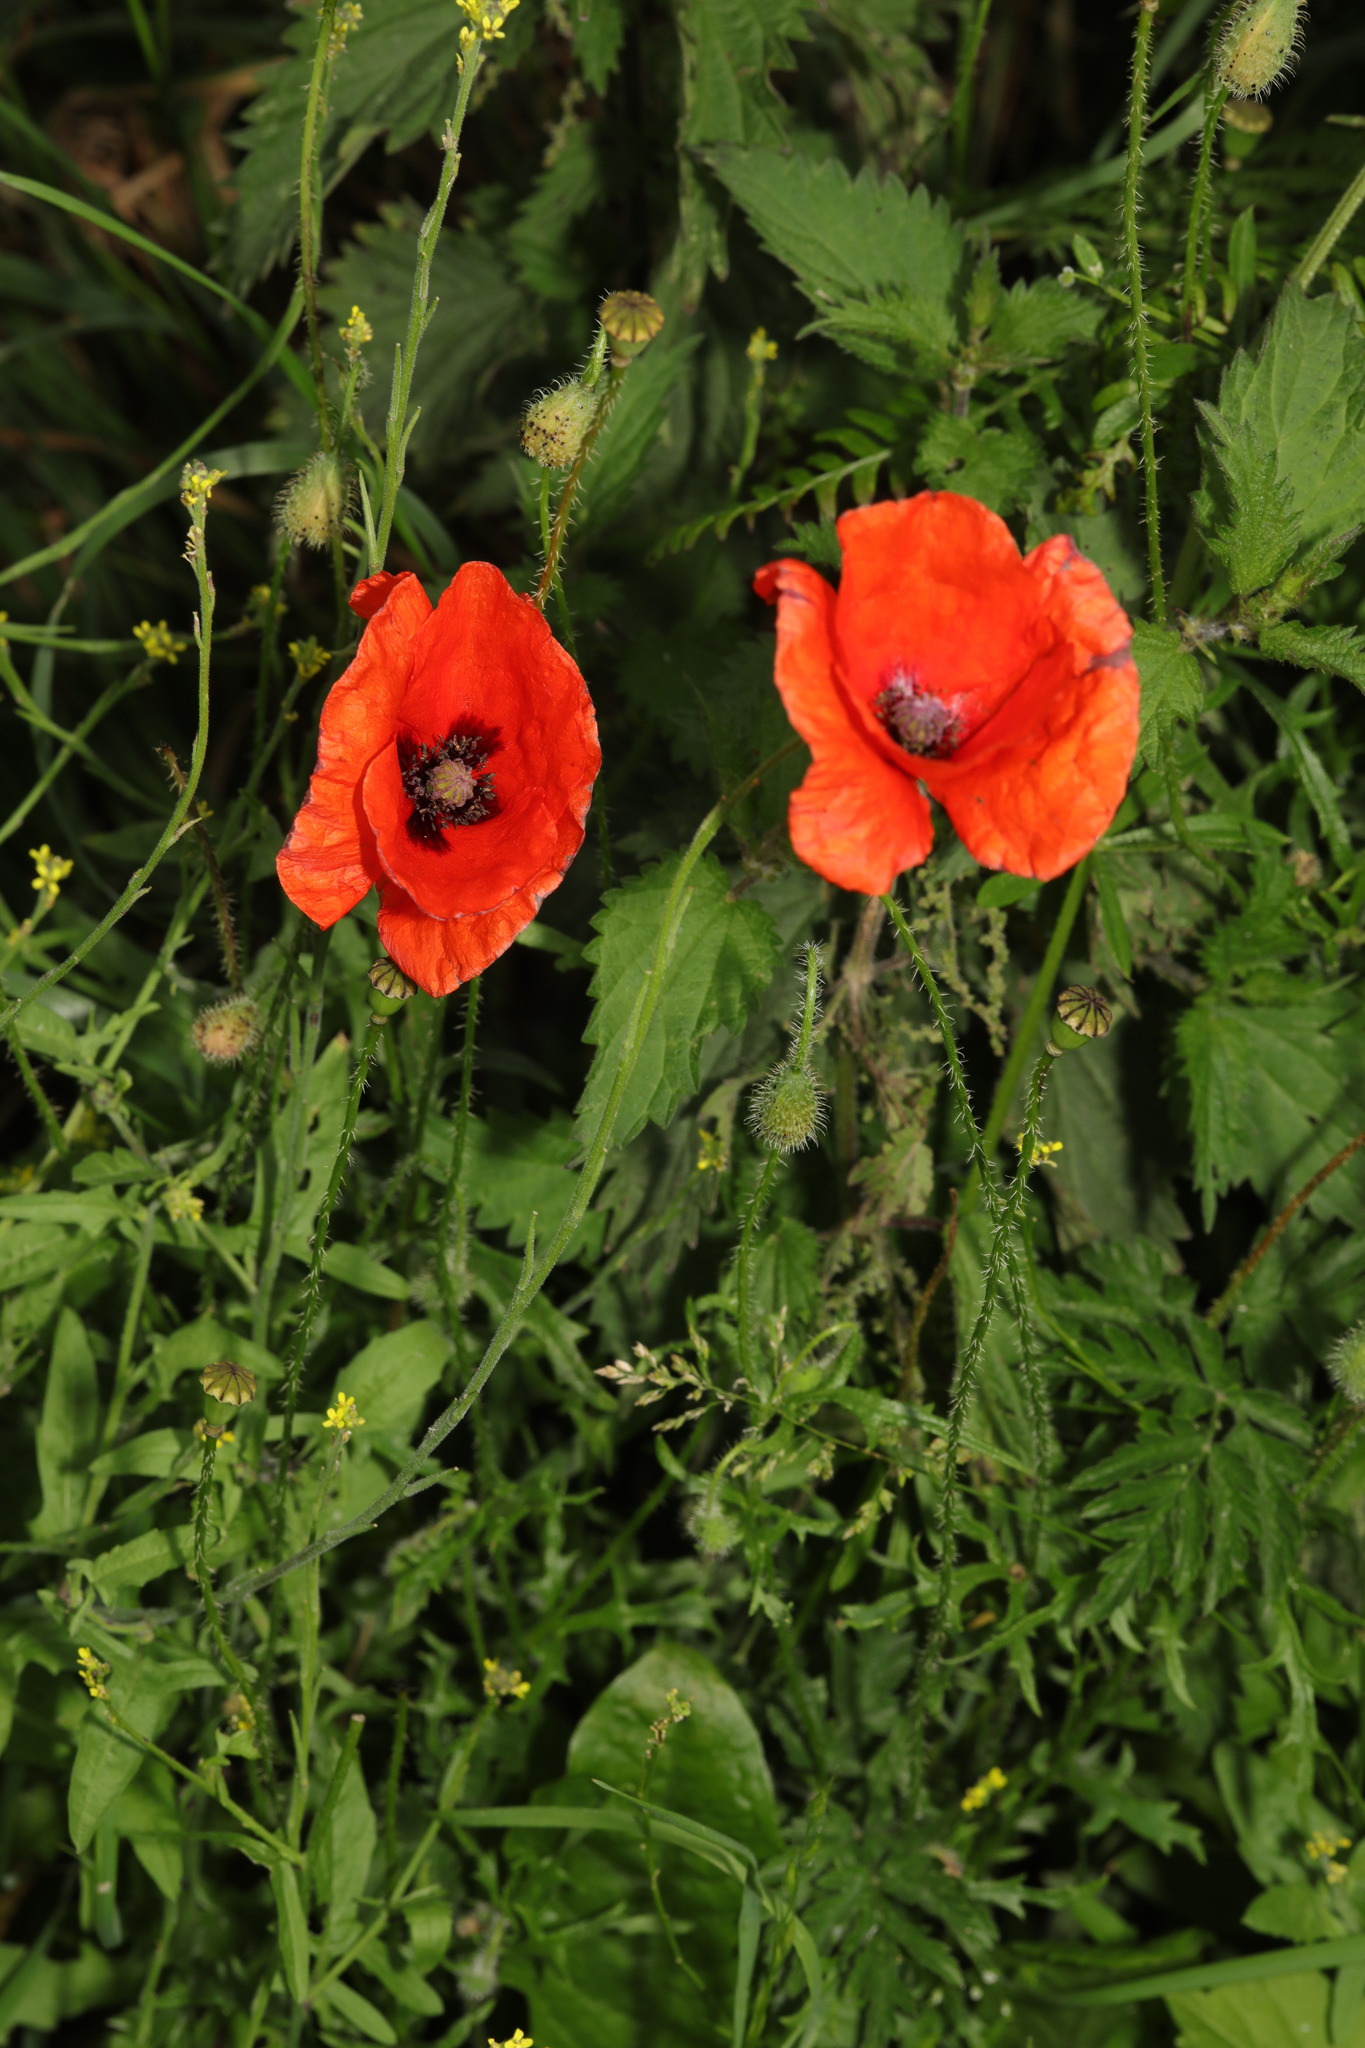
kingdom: Plantae
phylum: Tracheophyta
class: Magnoliopsida
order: Ranunculales
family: Papaveraceae
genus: Papaver
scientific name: Papaver rhoeas
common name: Corn poppy
